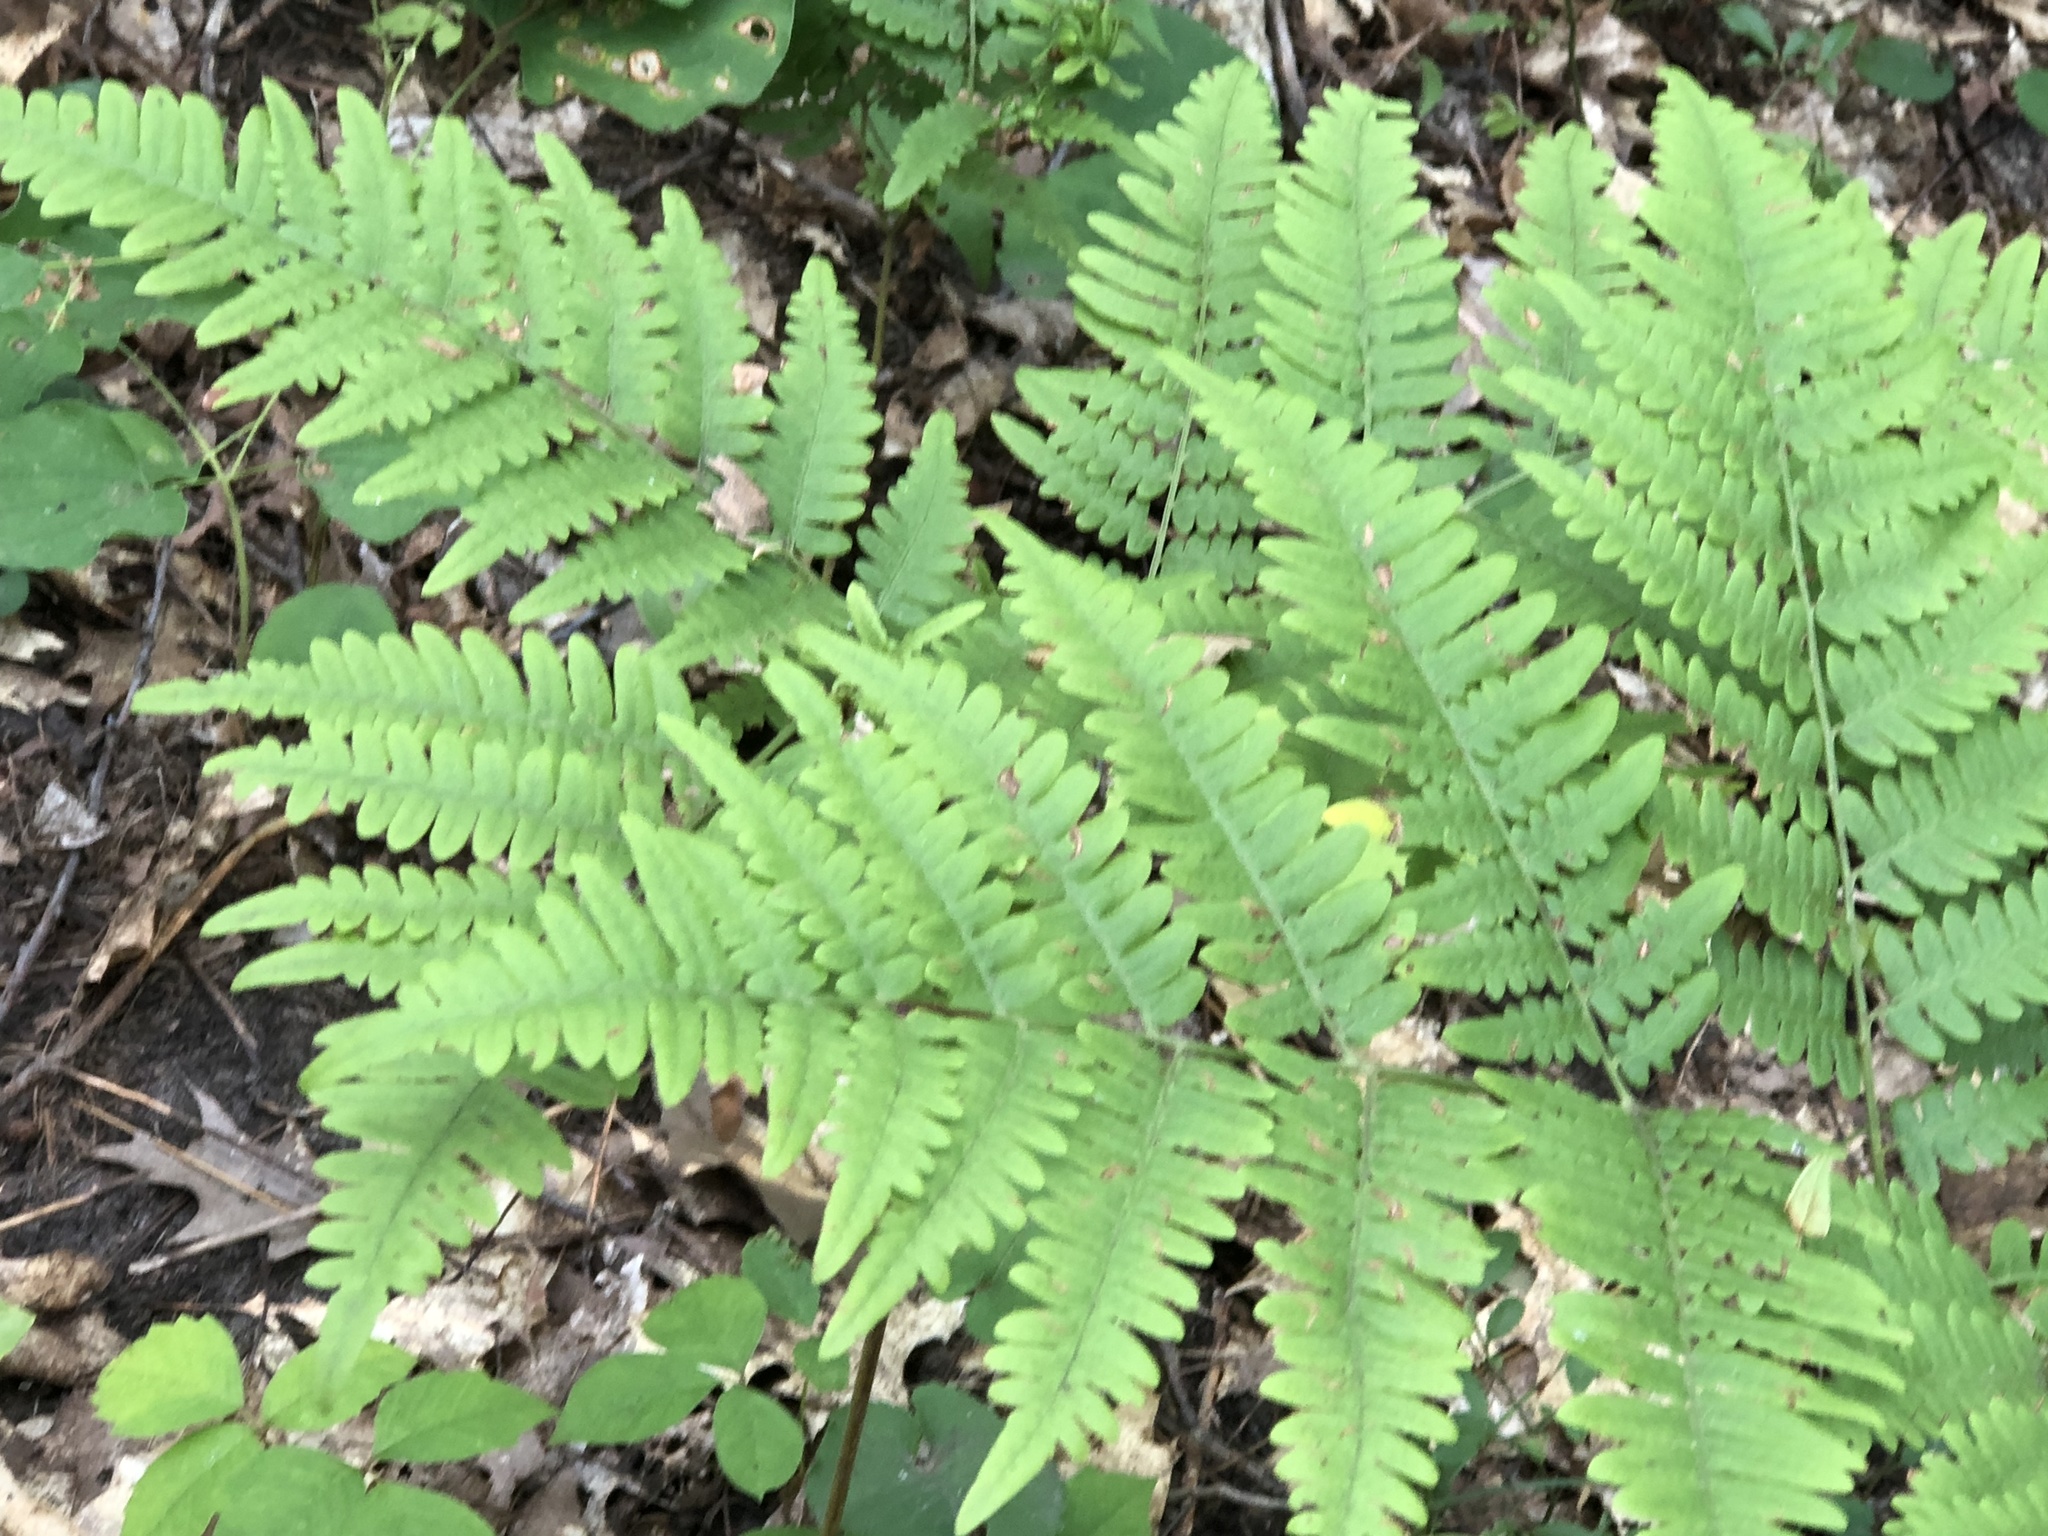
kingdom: Plantae
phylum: Tracheophyta
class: Polypodiopsida
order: Polypodiales
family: Dennstaedtiaceae
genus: Pteridium
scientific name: Pteridium aquilinum
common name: Bracken
